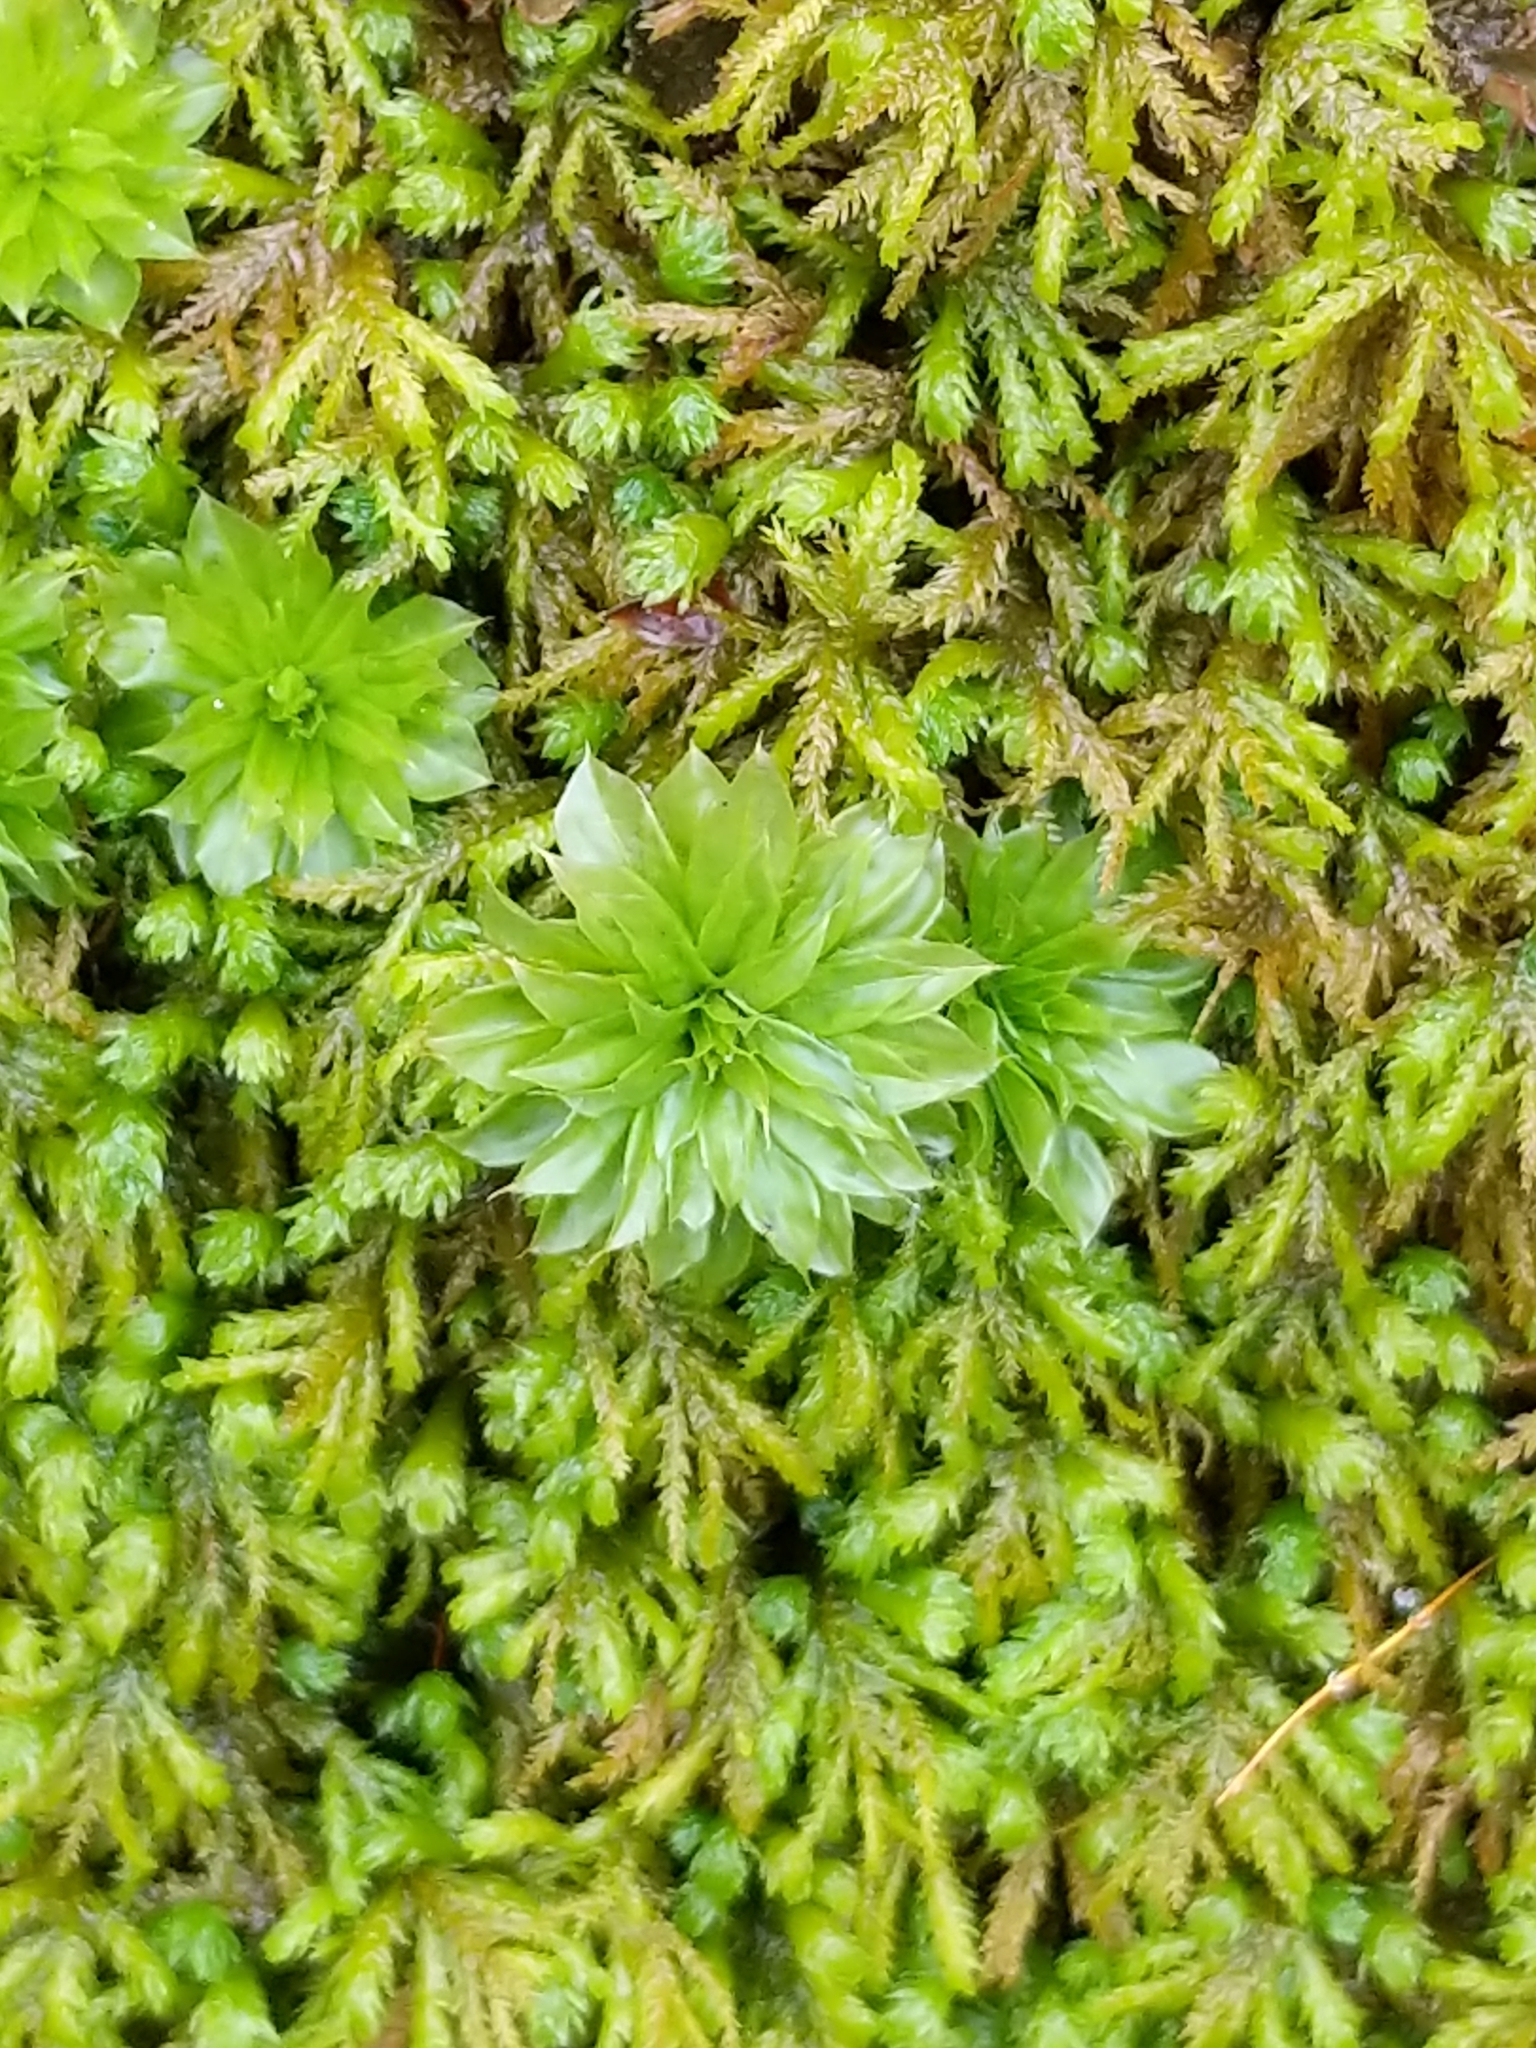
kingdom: Plantae
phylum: Bryophyta
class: Bryopsida
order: Bryales
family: Bryaceae
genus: Rhodobryum
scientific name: Rhodobryum ontariense
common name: Ontario rhodobryum moss
